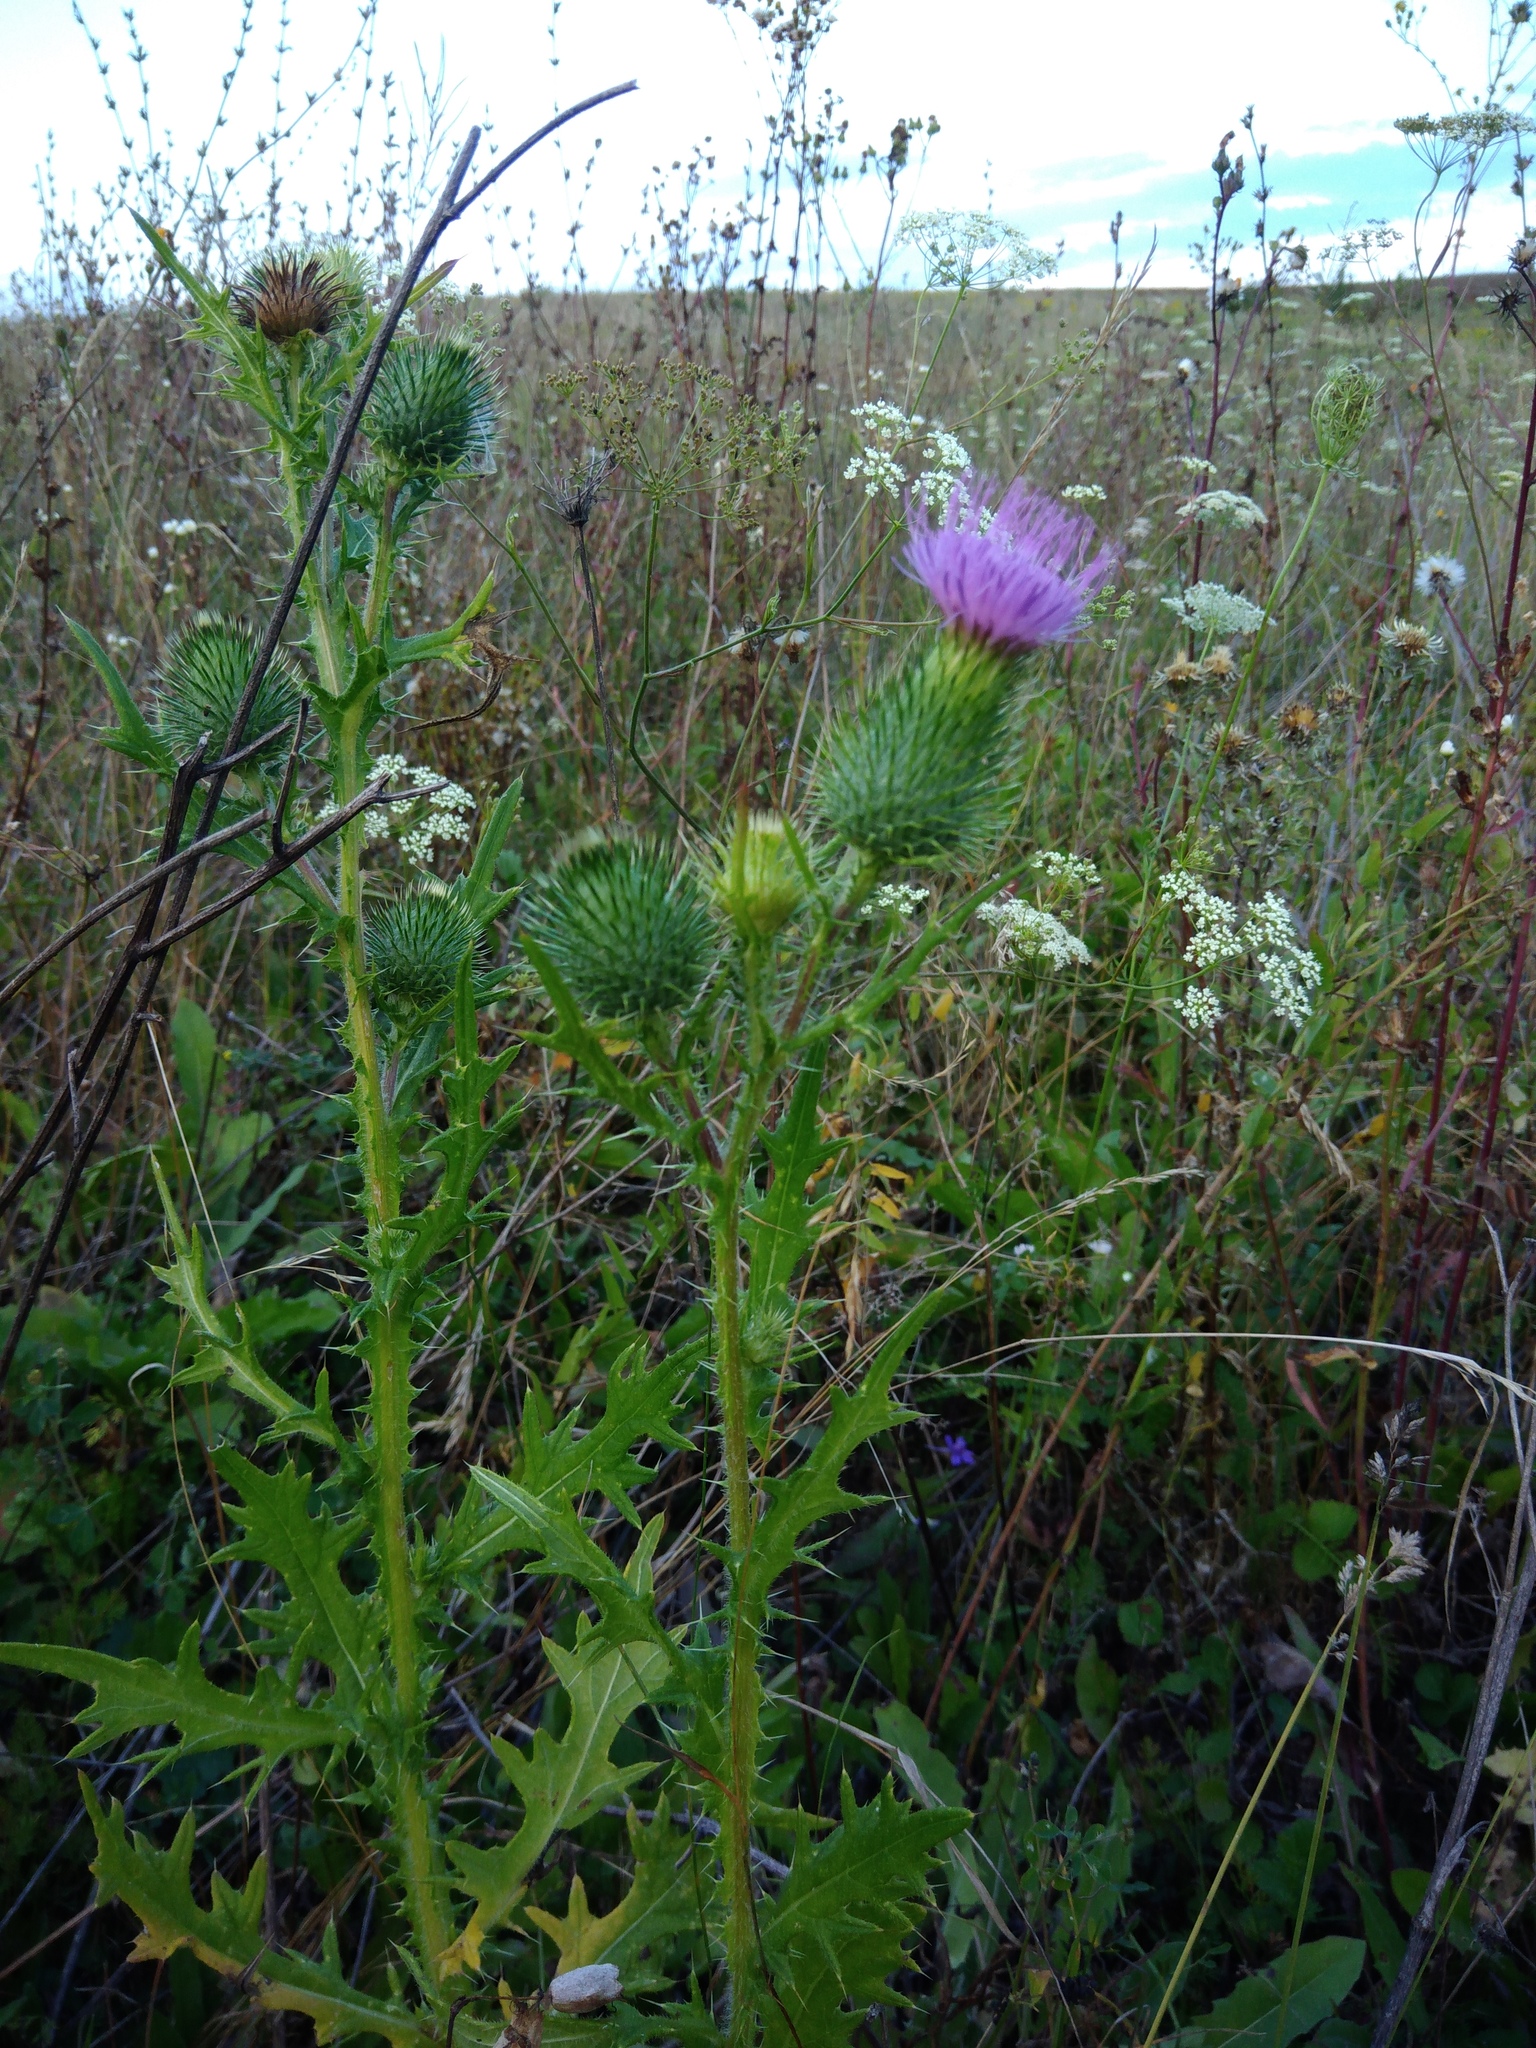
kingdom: Plantae
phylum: Tracheophyta
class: Magnoliopsida
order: Asterales
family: Asteraceae
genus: Cirsium
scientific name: Cirsium vulgare
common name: Bull thistle
